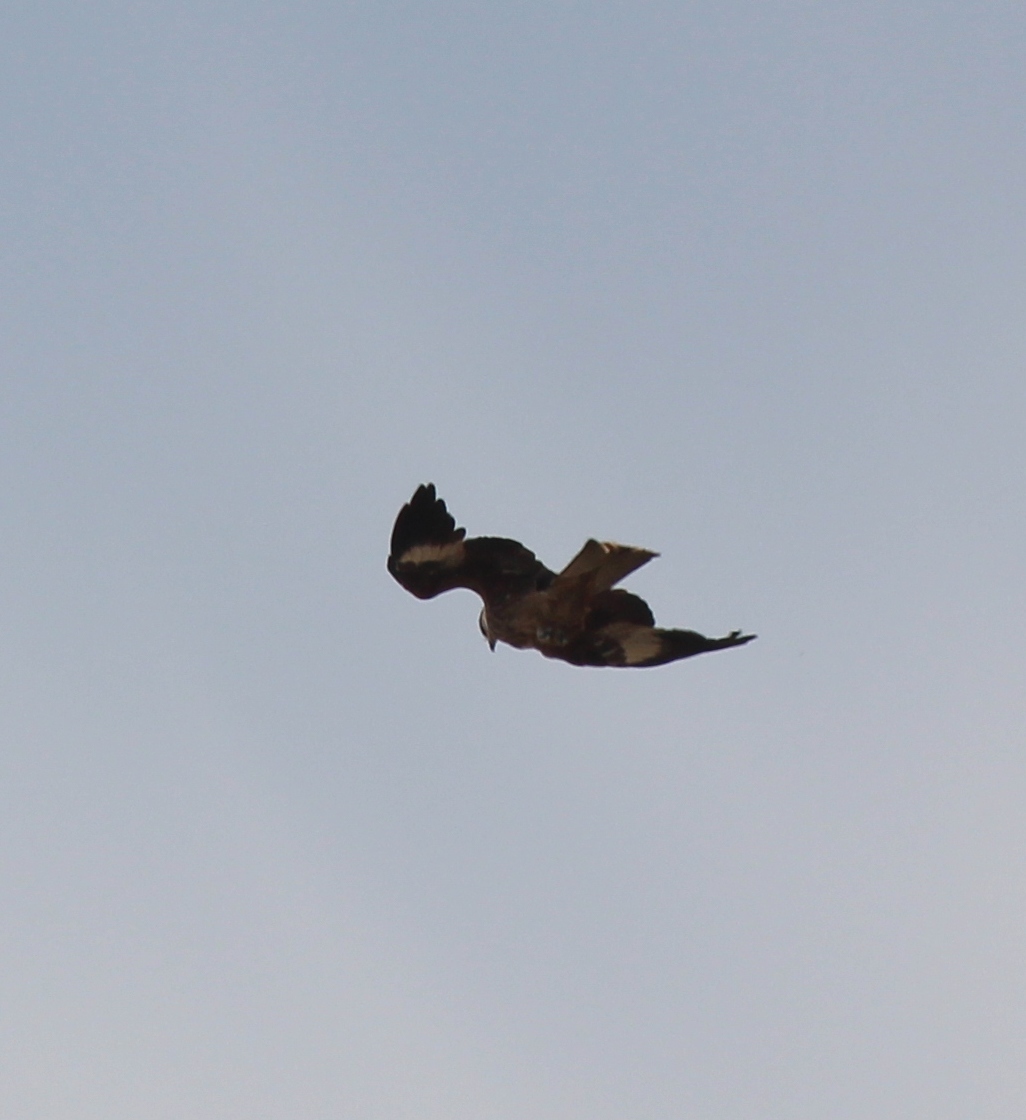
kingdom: Animalia
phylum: Chordata
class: Aves
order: Accipitriformes
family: Accipitridae
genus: Milvus
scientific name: Milvus migrans
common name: Black kite
